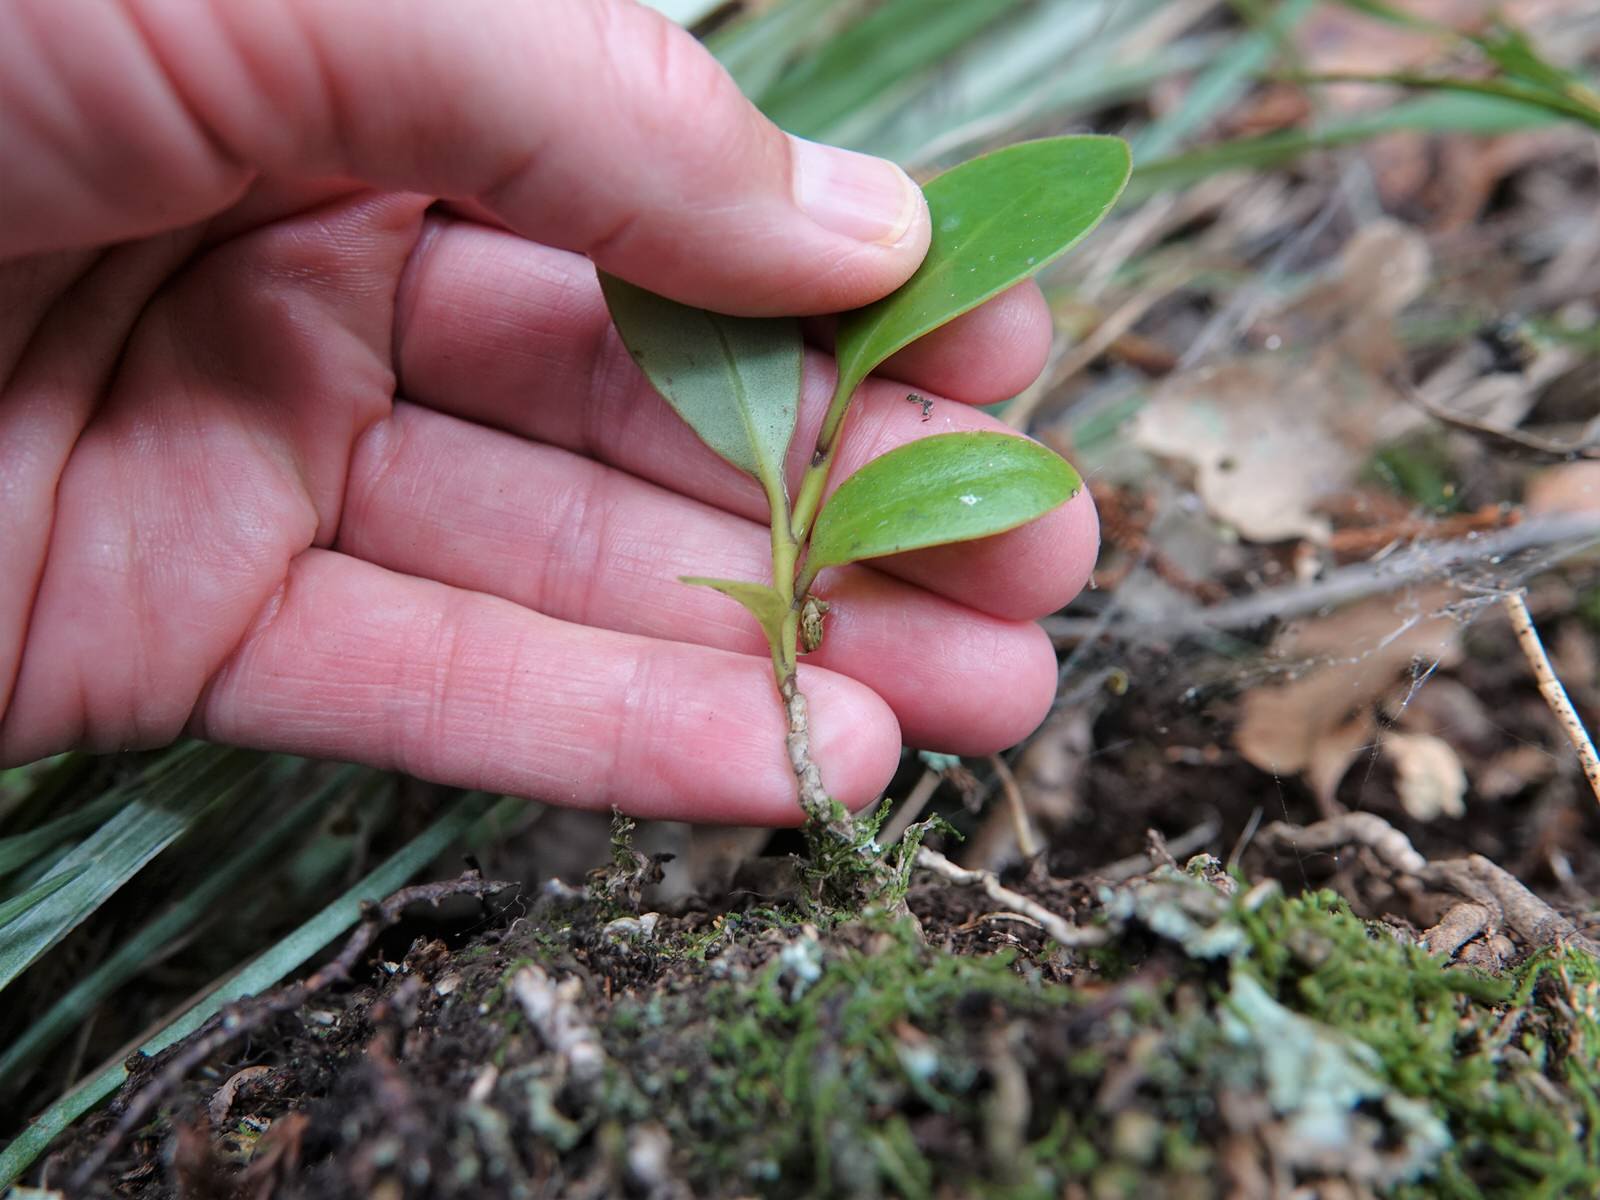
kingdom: Plantae
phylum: Tracheophyta
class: Magnoliopsida
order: Apiales
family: Griseliniaceae
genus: Griselinia
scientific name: Griselinia lucida
